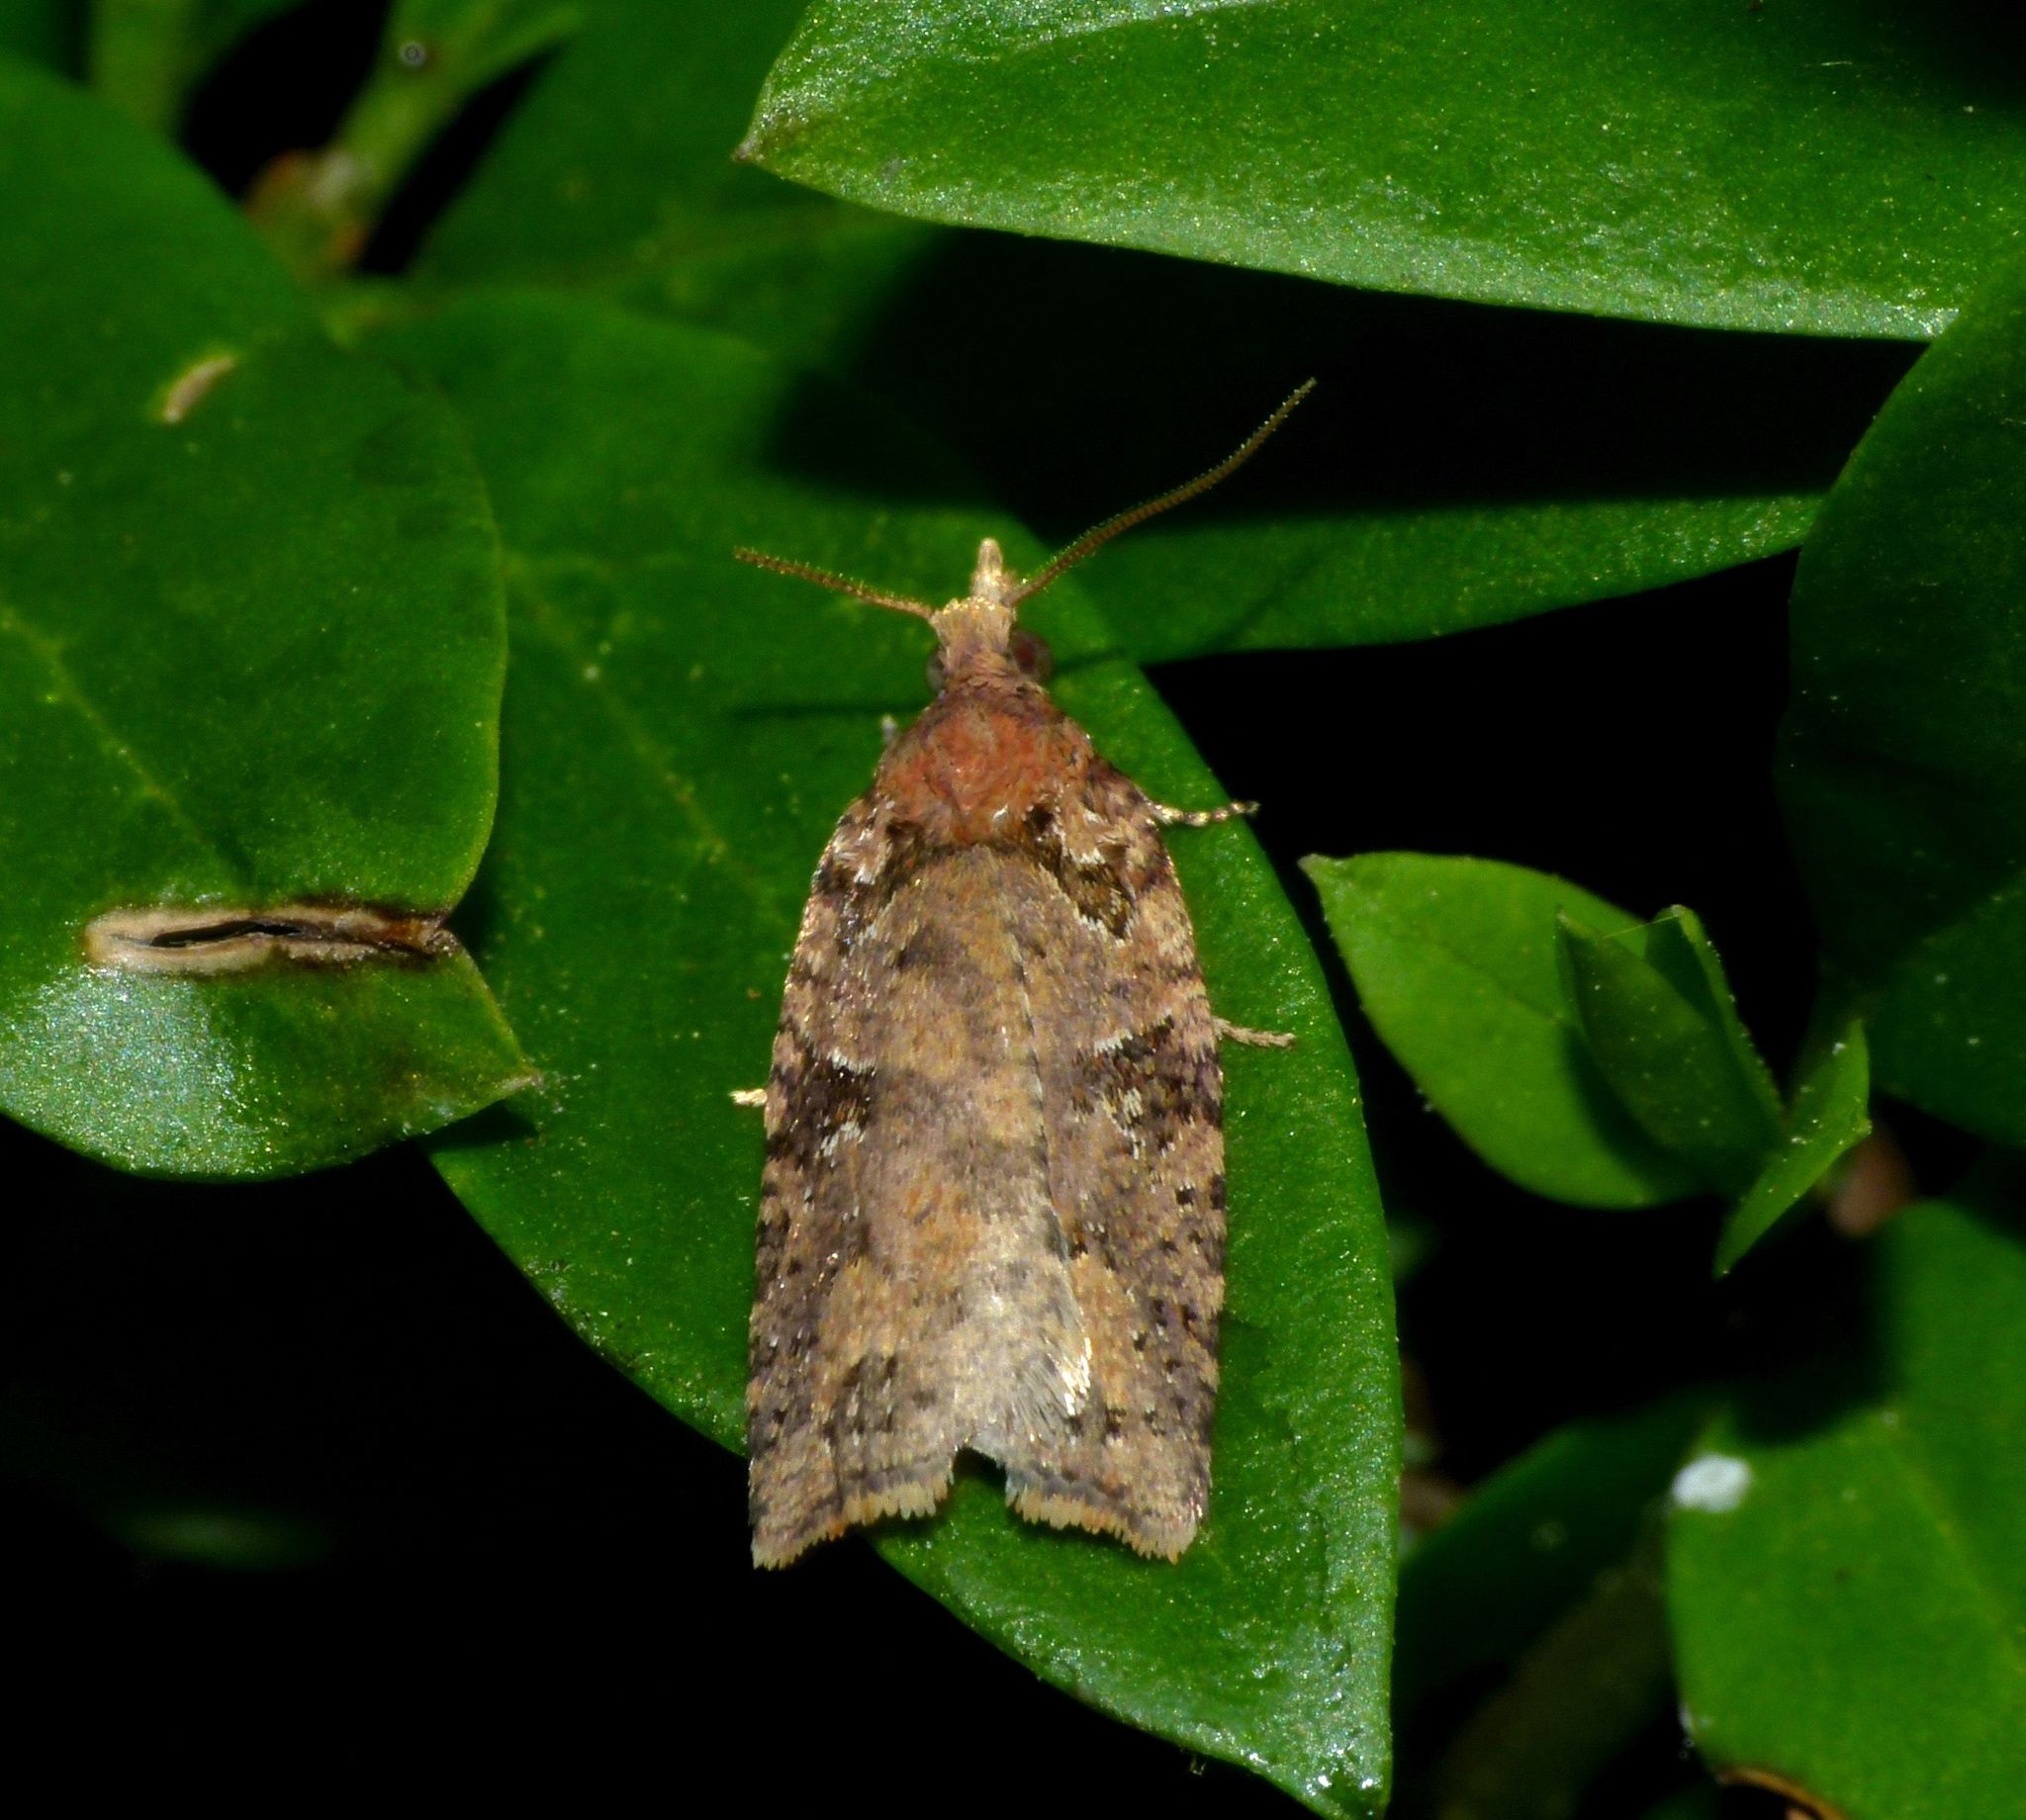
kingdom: Animalia
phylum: Arthropoda
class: Insecta
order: Lepidoptera
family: Tortricidae
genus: Ctenopseustis
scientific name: Ctenopseustis obliquana
